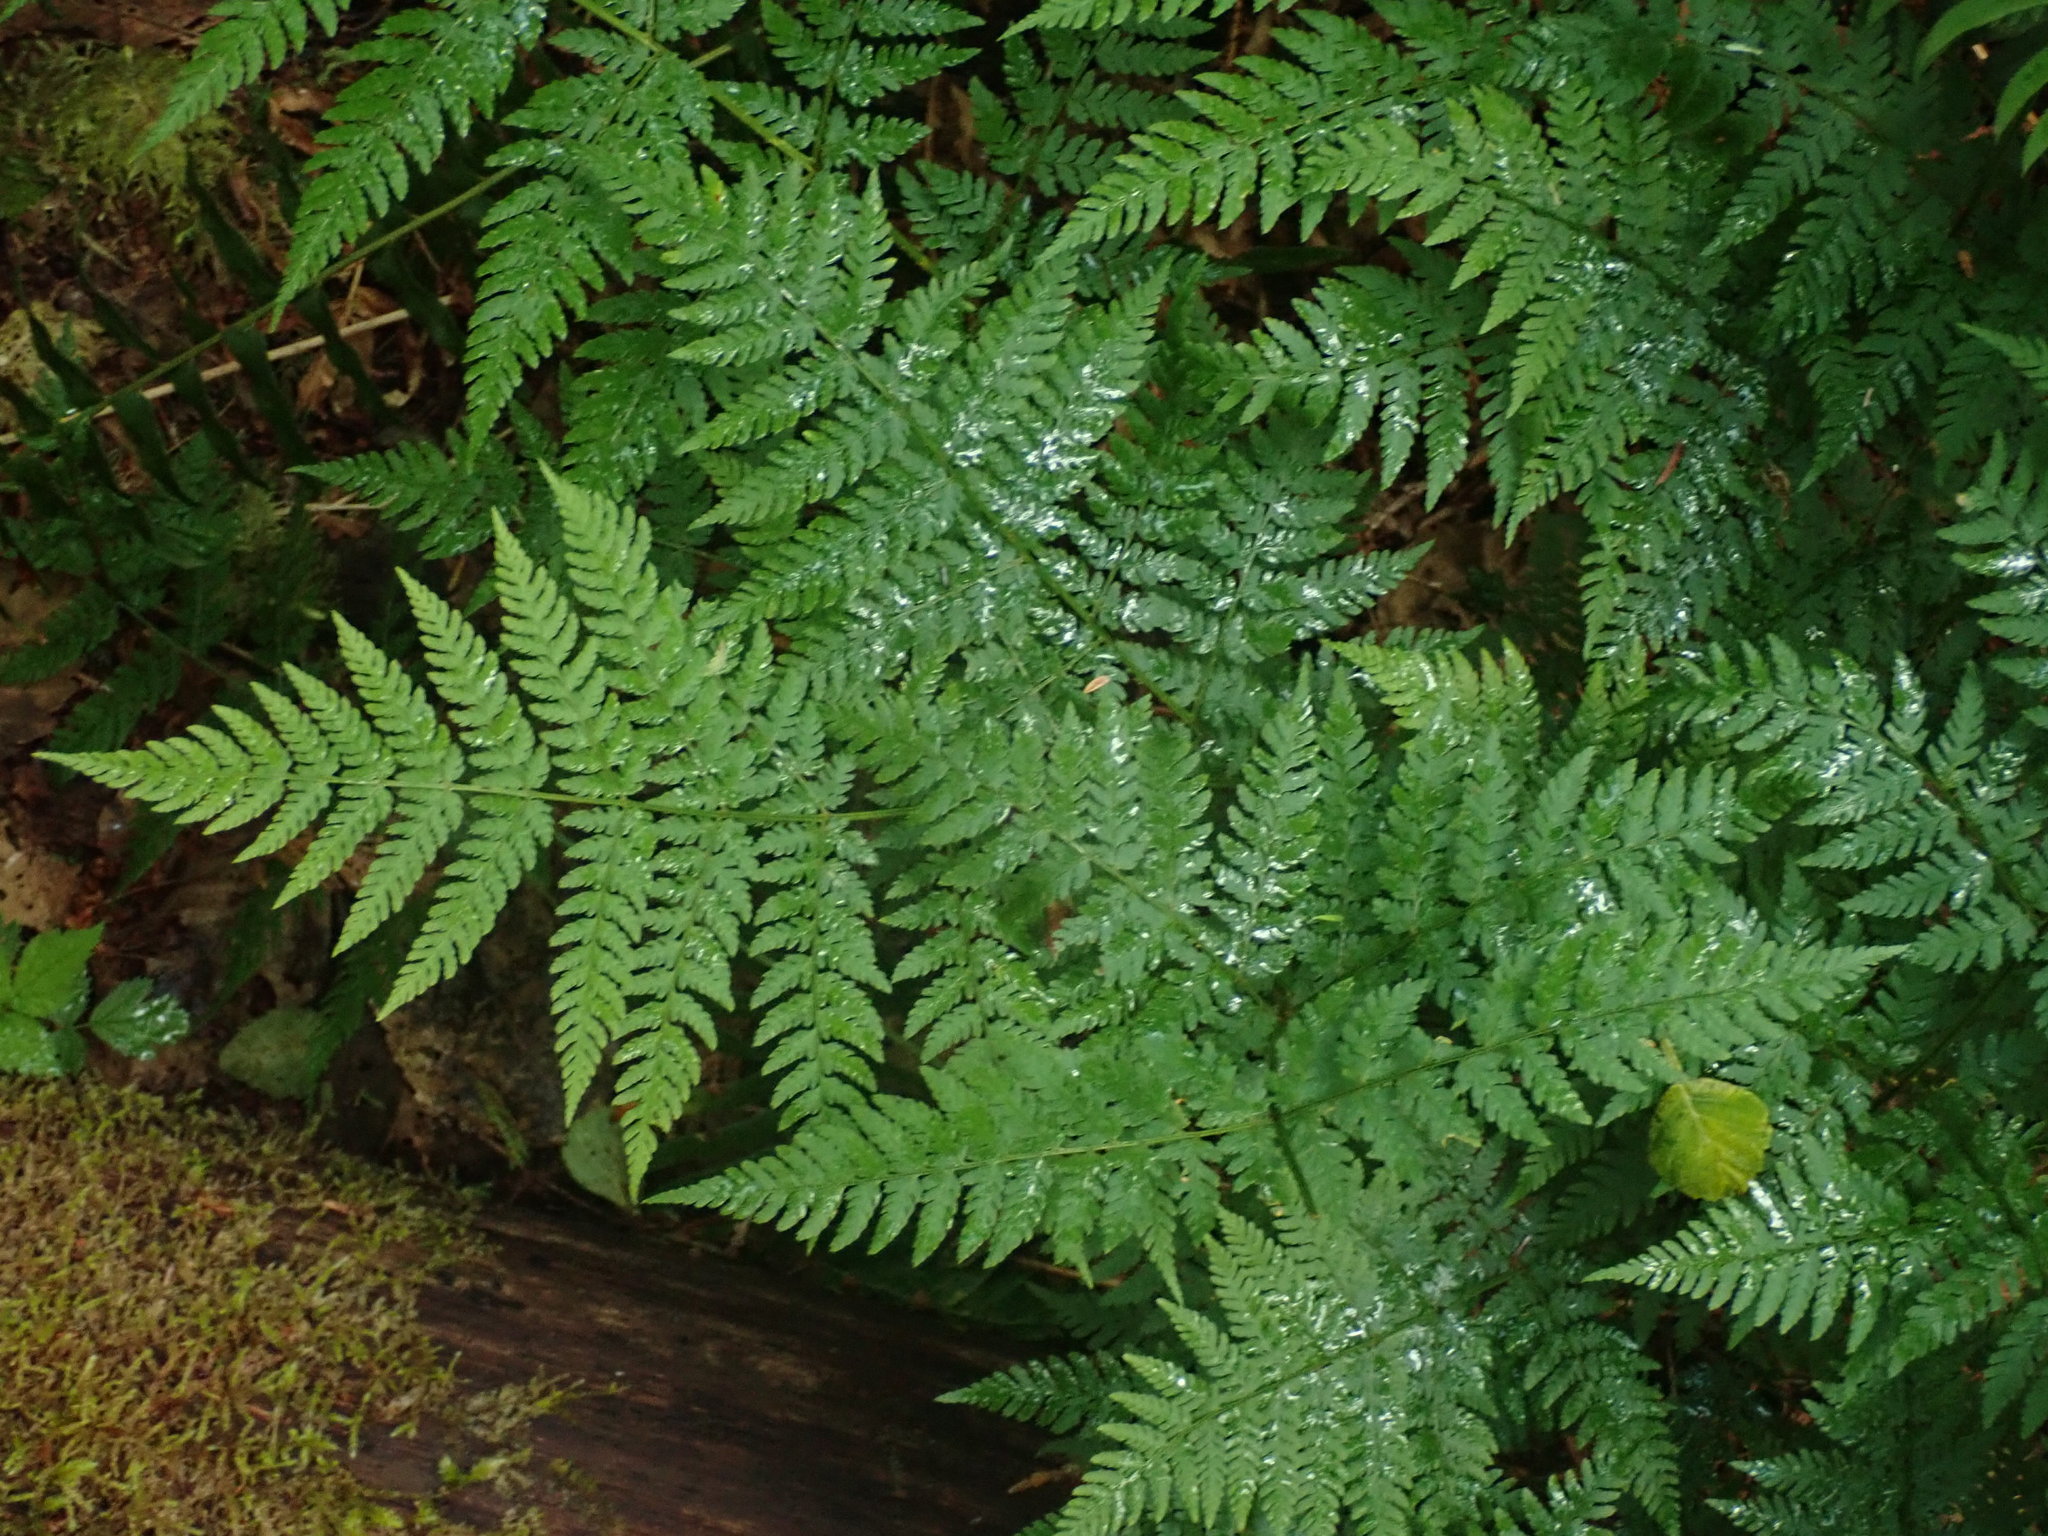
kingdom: Plantae
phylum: Tracheophyta
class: Polypodiopsida
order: Polypodiales
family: Dryopteridaceae
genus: Dryopteris
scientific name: Dryopteris expansa
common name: Northern buckler fern
